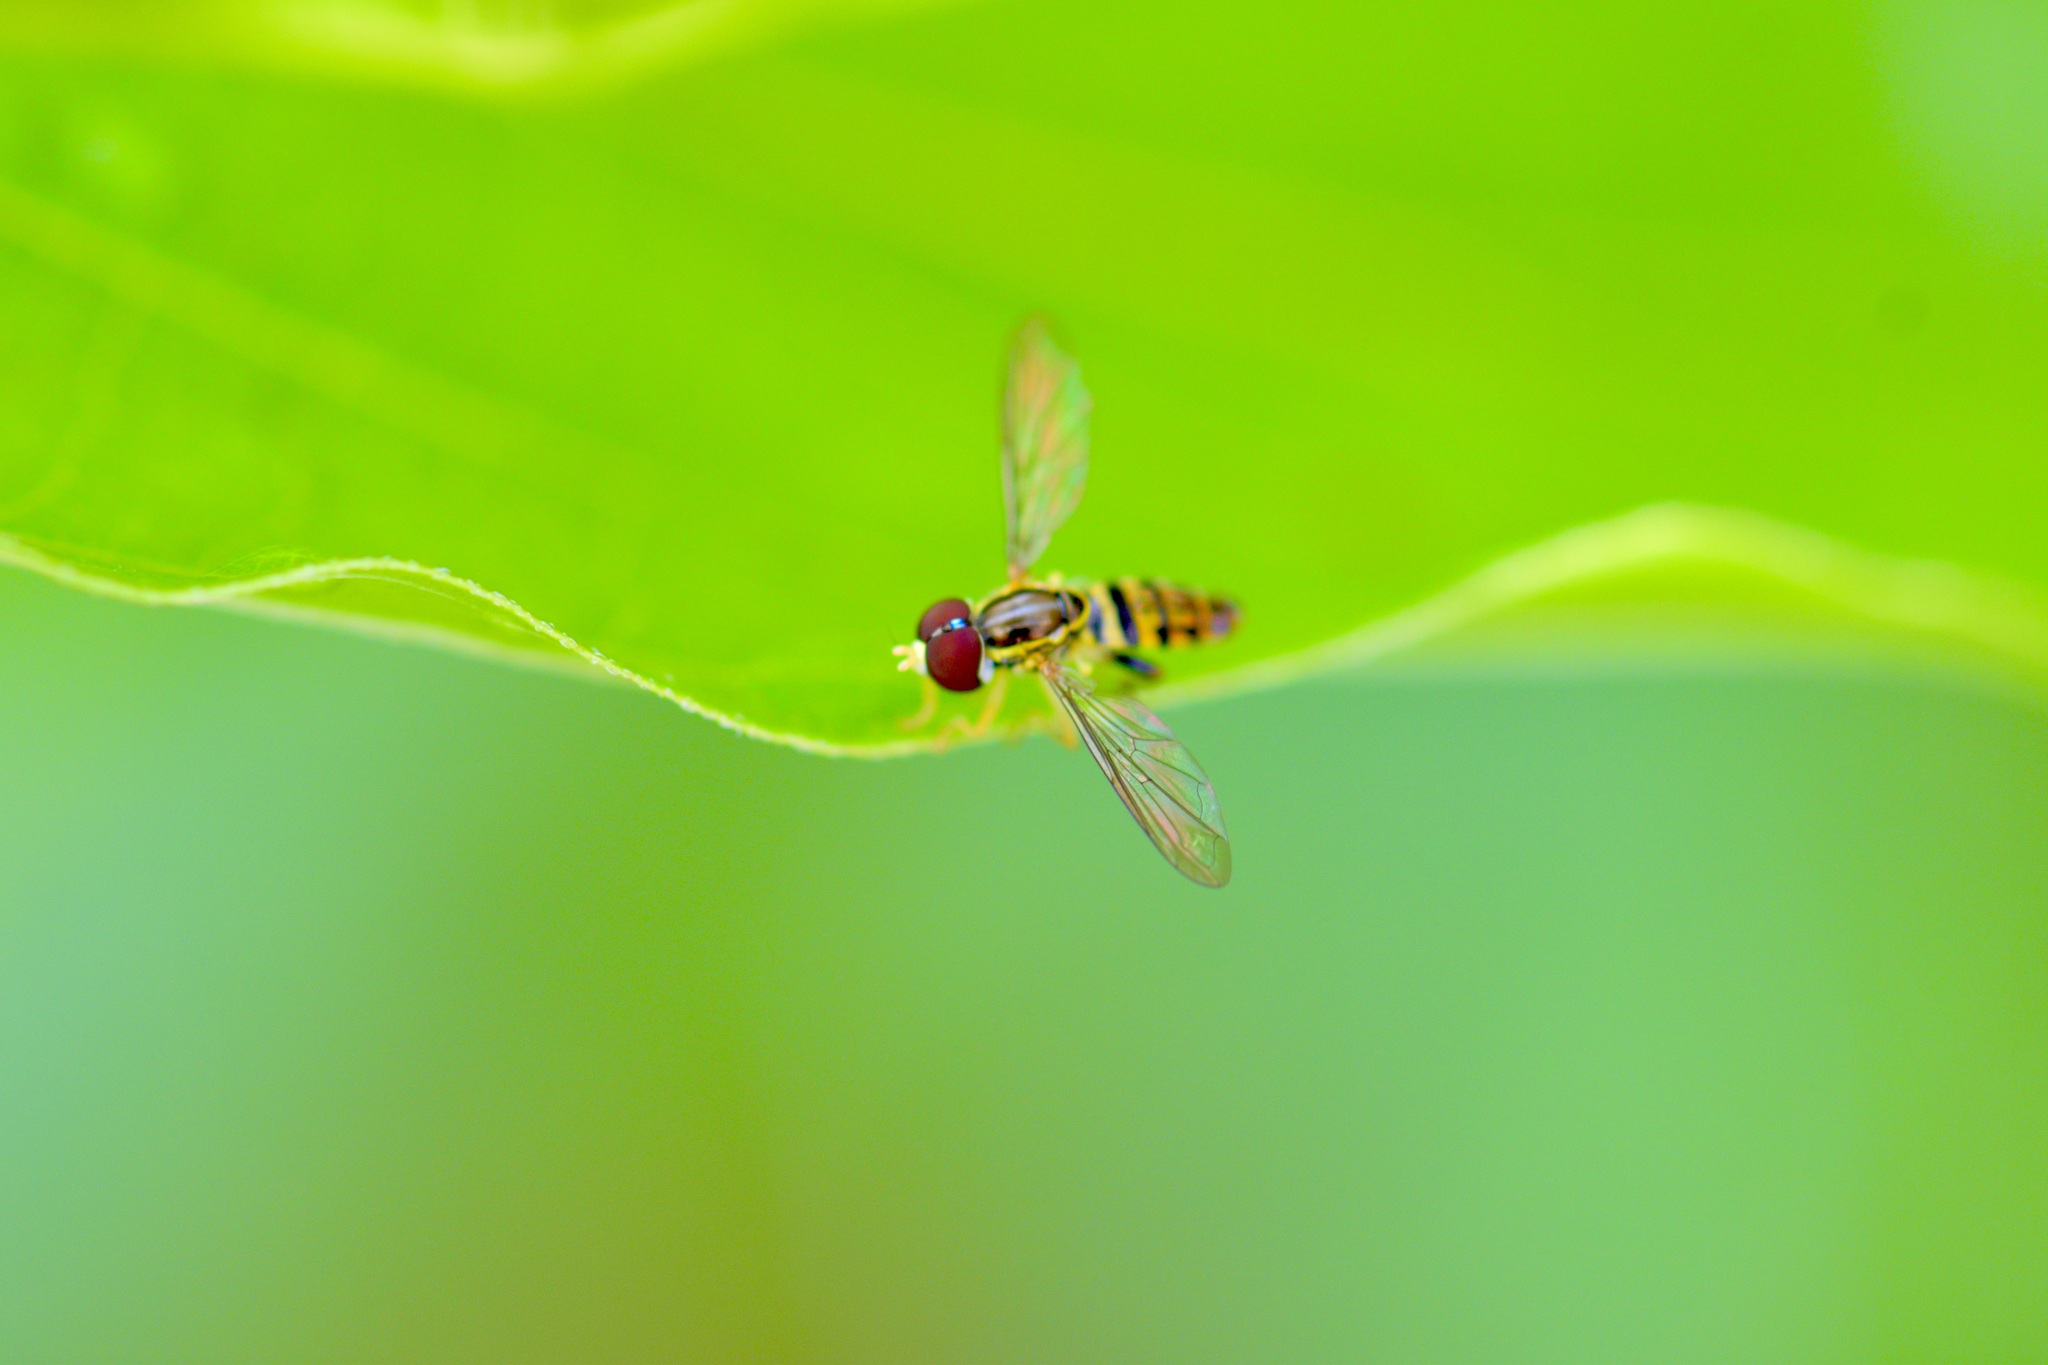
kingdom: Animalia
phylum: Arthropoda
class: Insecta
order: Diptera
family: Syrphidae
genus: Toxomerus
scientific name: Toxomerus geminatus
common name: Eastern calligrapher
